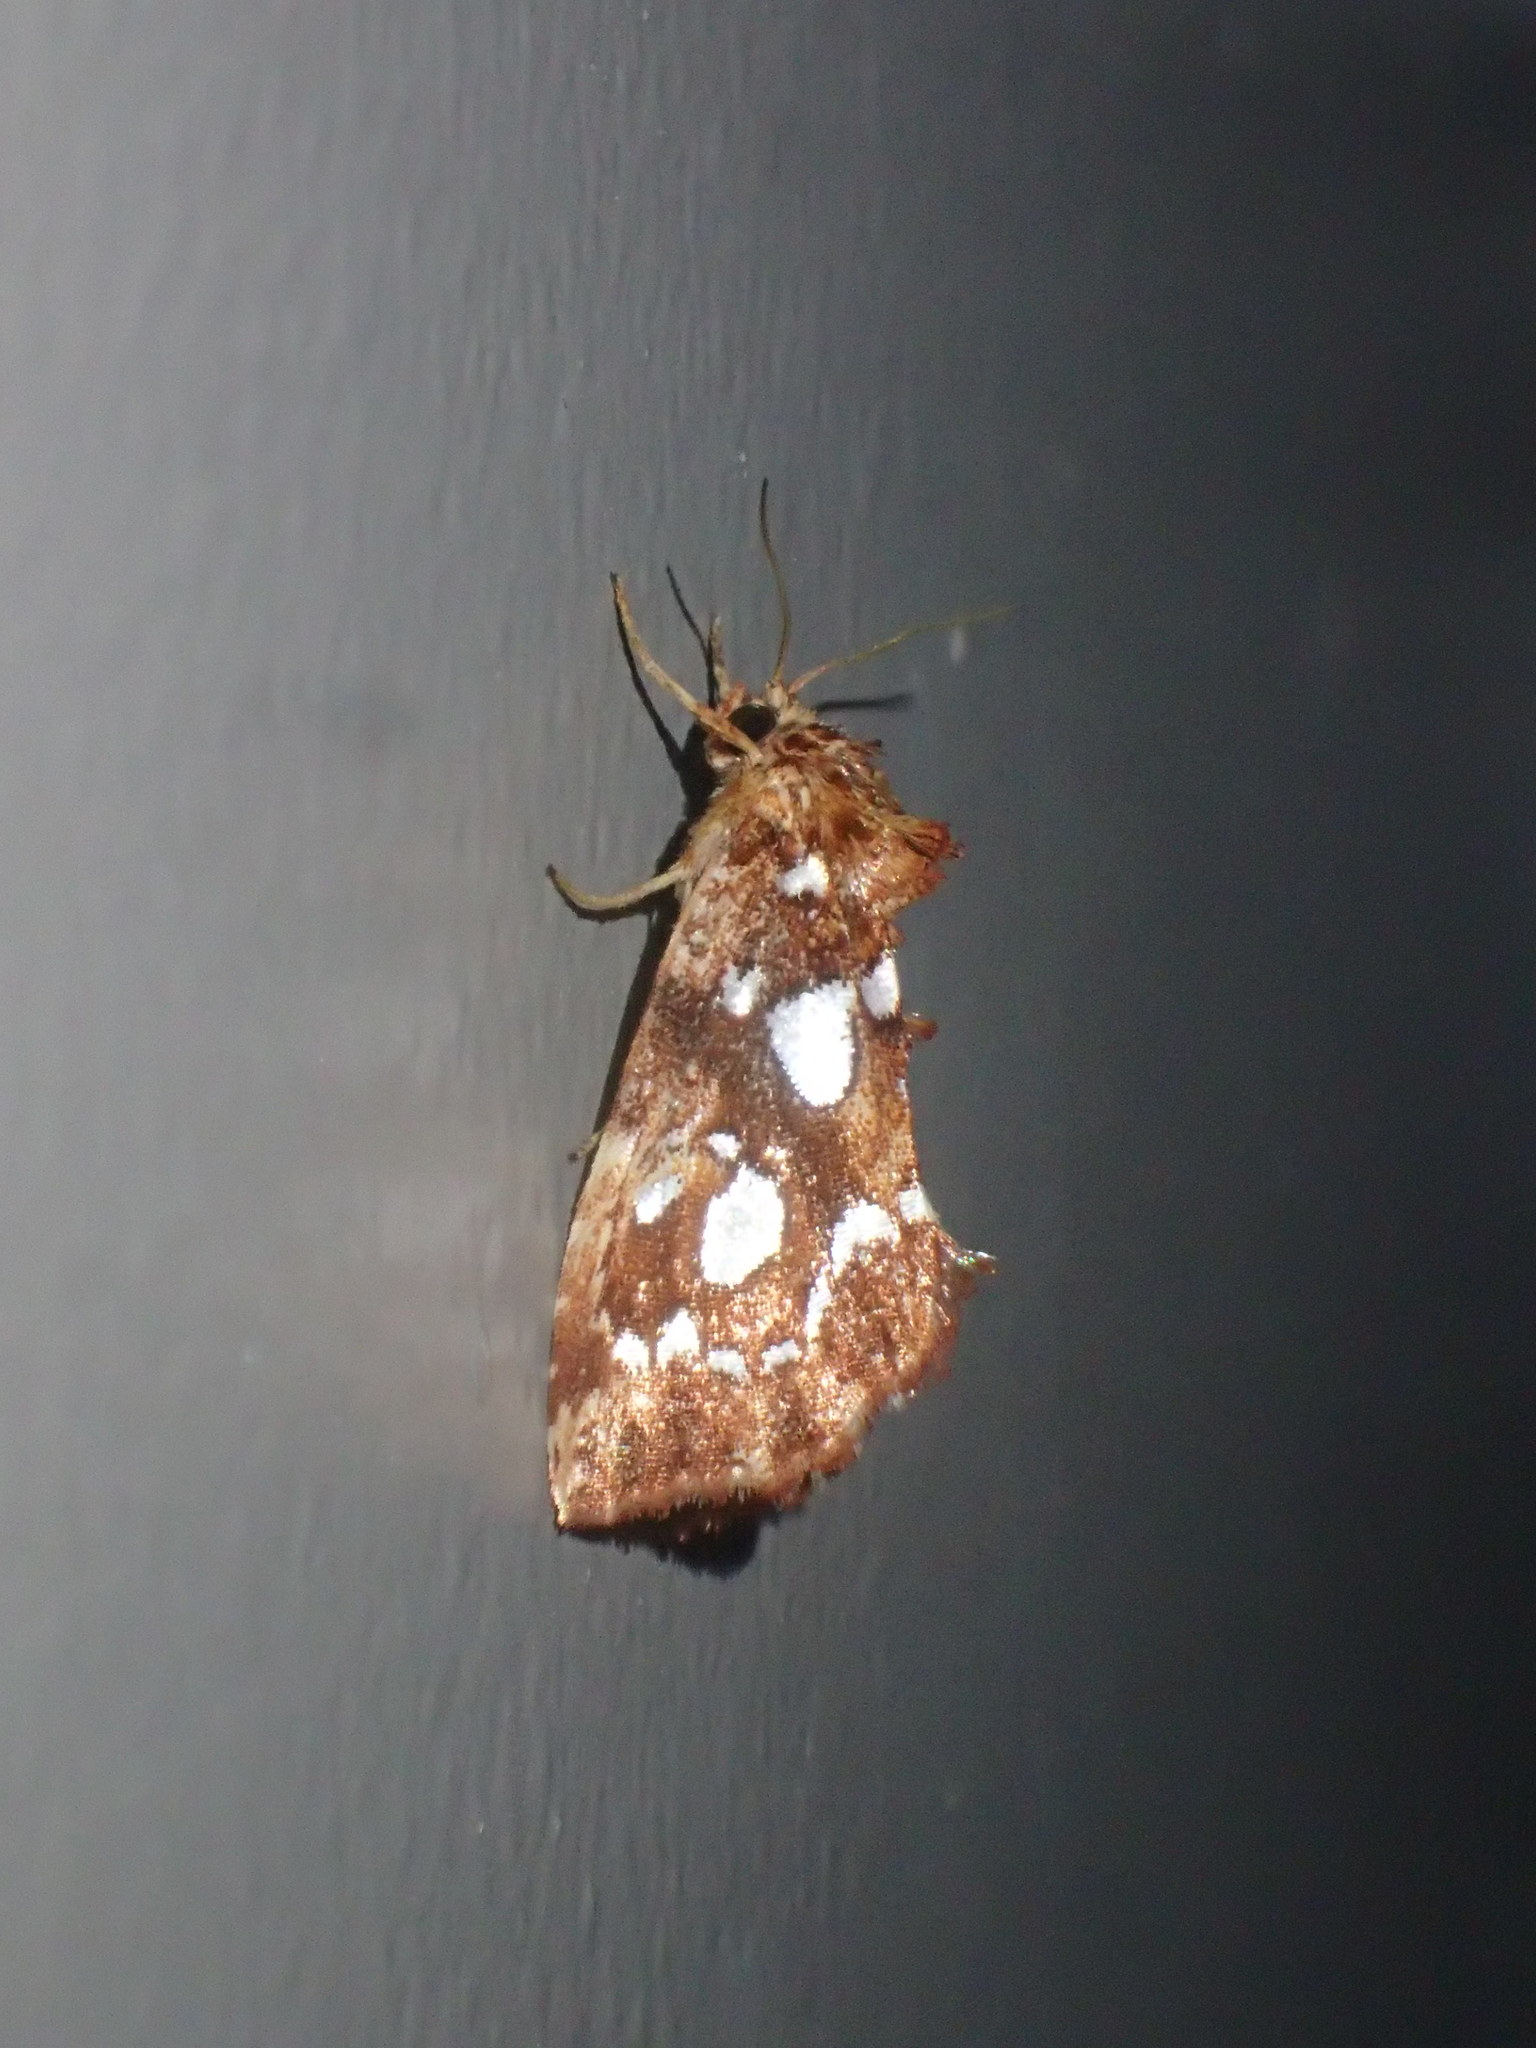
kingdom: Animalia
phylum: Arthropoda
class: Insecta
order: Lepidoptera
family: Noctuidae
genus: Callopistria
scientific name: Callopistria cordata
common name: Silver-spotted fern moth
